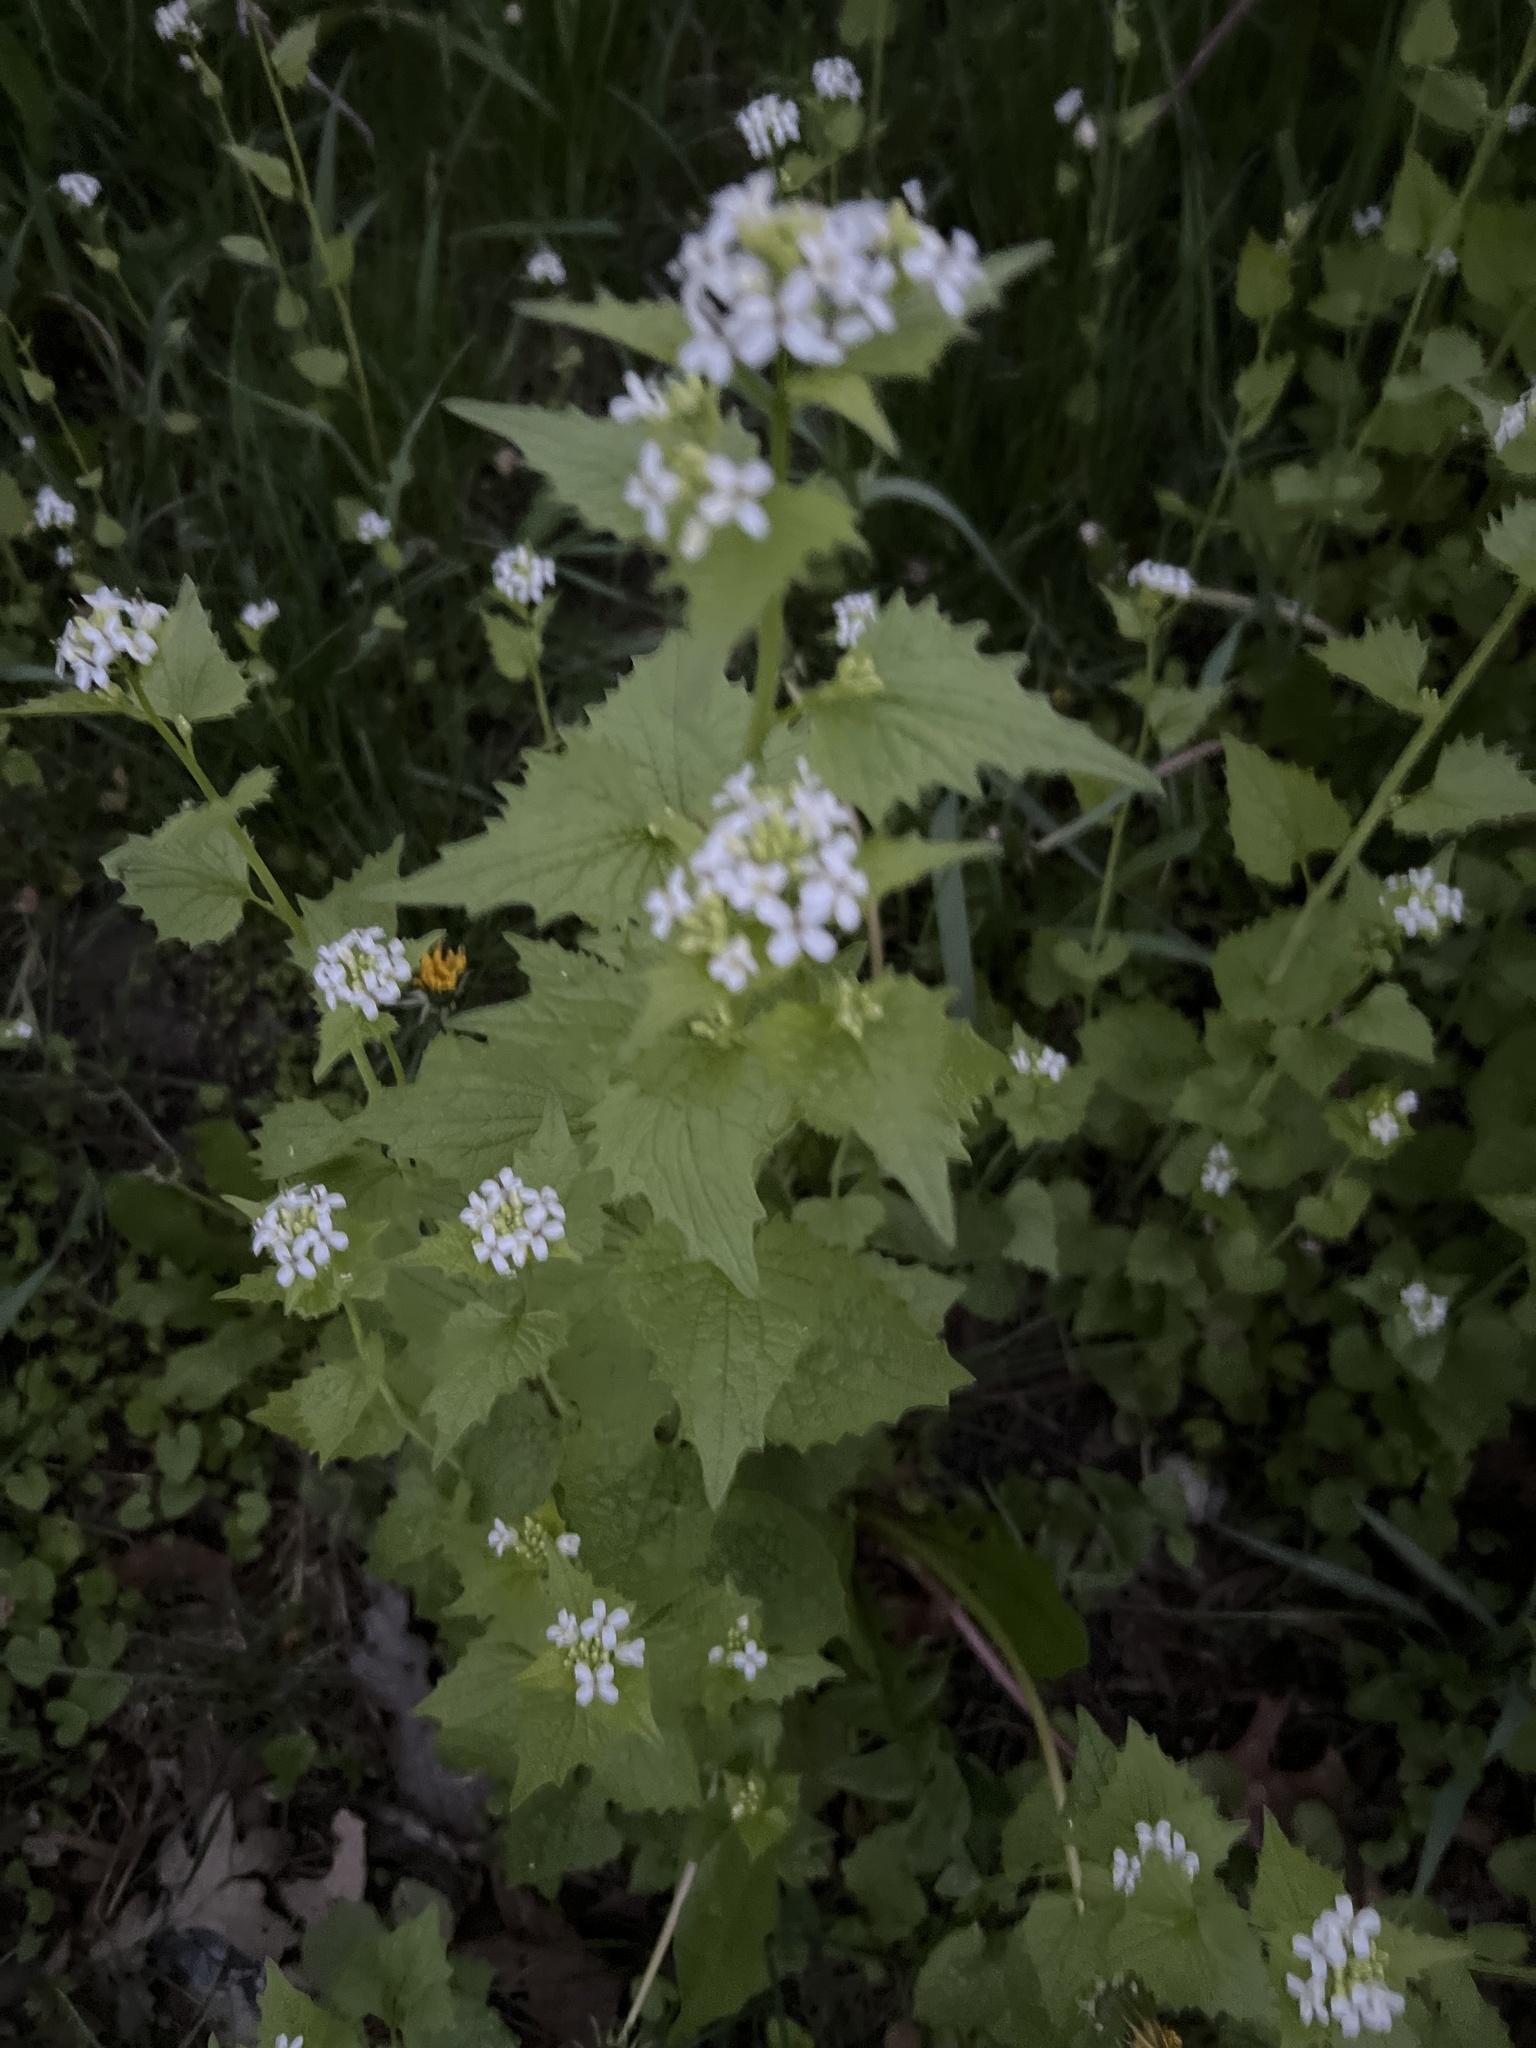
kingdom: Plantae
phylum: Tracheophyta
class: Magnoliopsida
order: Brassicales
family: Brassicaceae
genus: Alliaria
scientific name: Alliaria petiolata
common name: Garlic mustard
